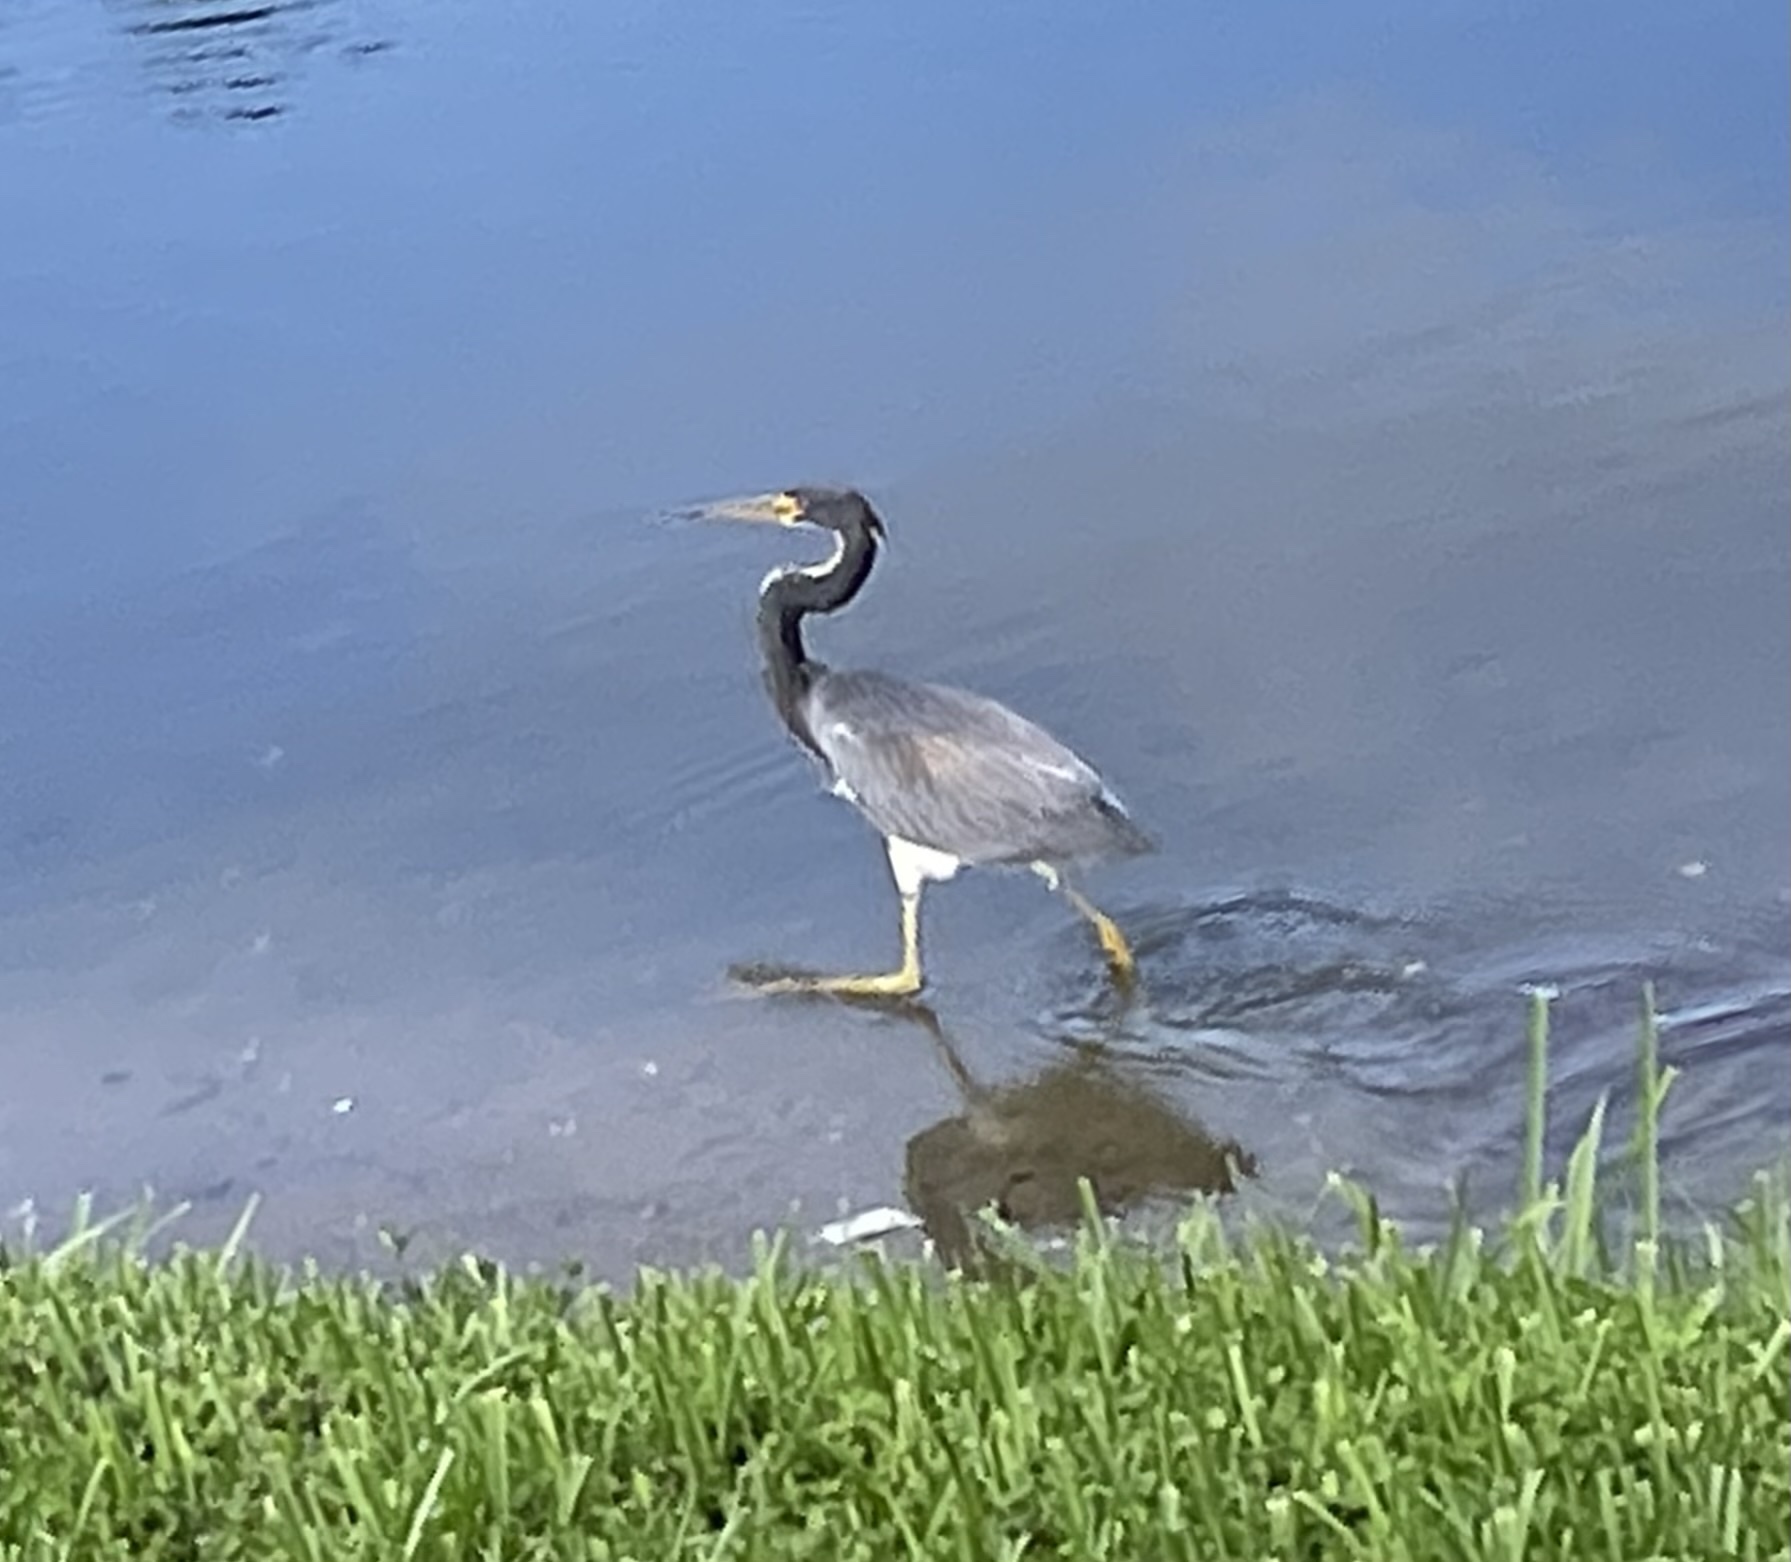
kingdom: Animalia
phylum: Chordata
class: Aves
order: Pelecaniformes
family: Ardeidae
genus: Egretta
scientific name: Egretta tricolor
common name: Tricolored heron
